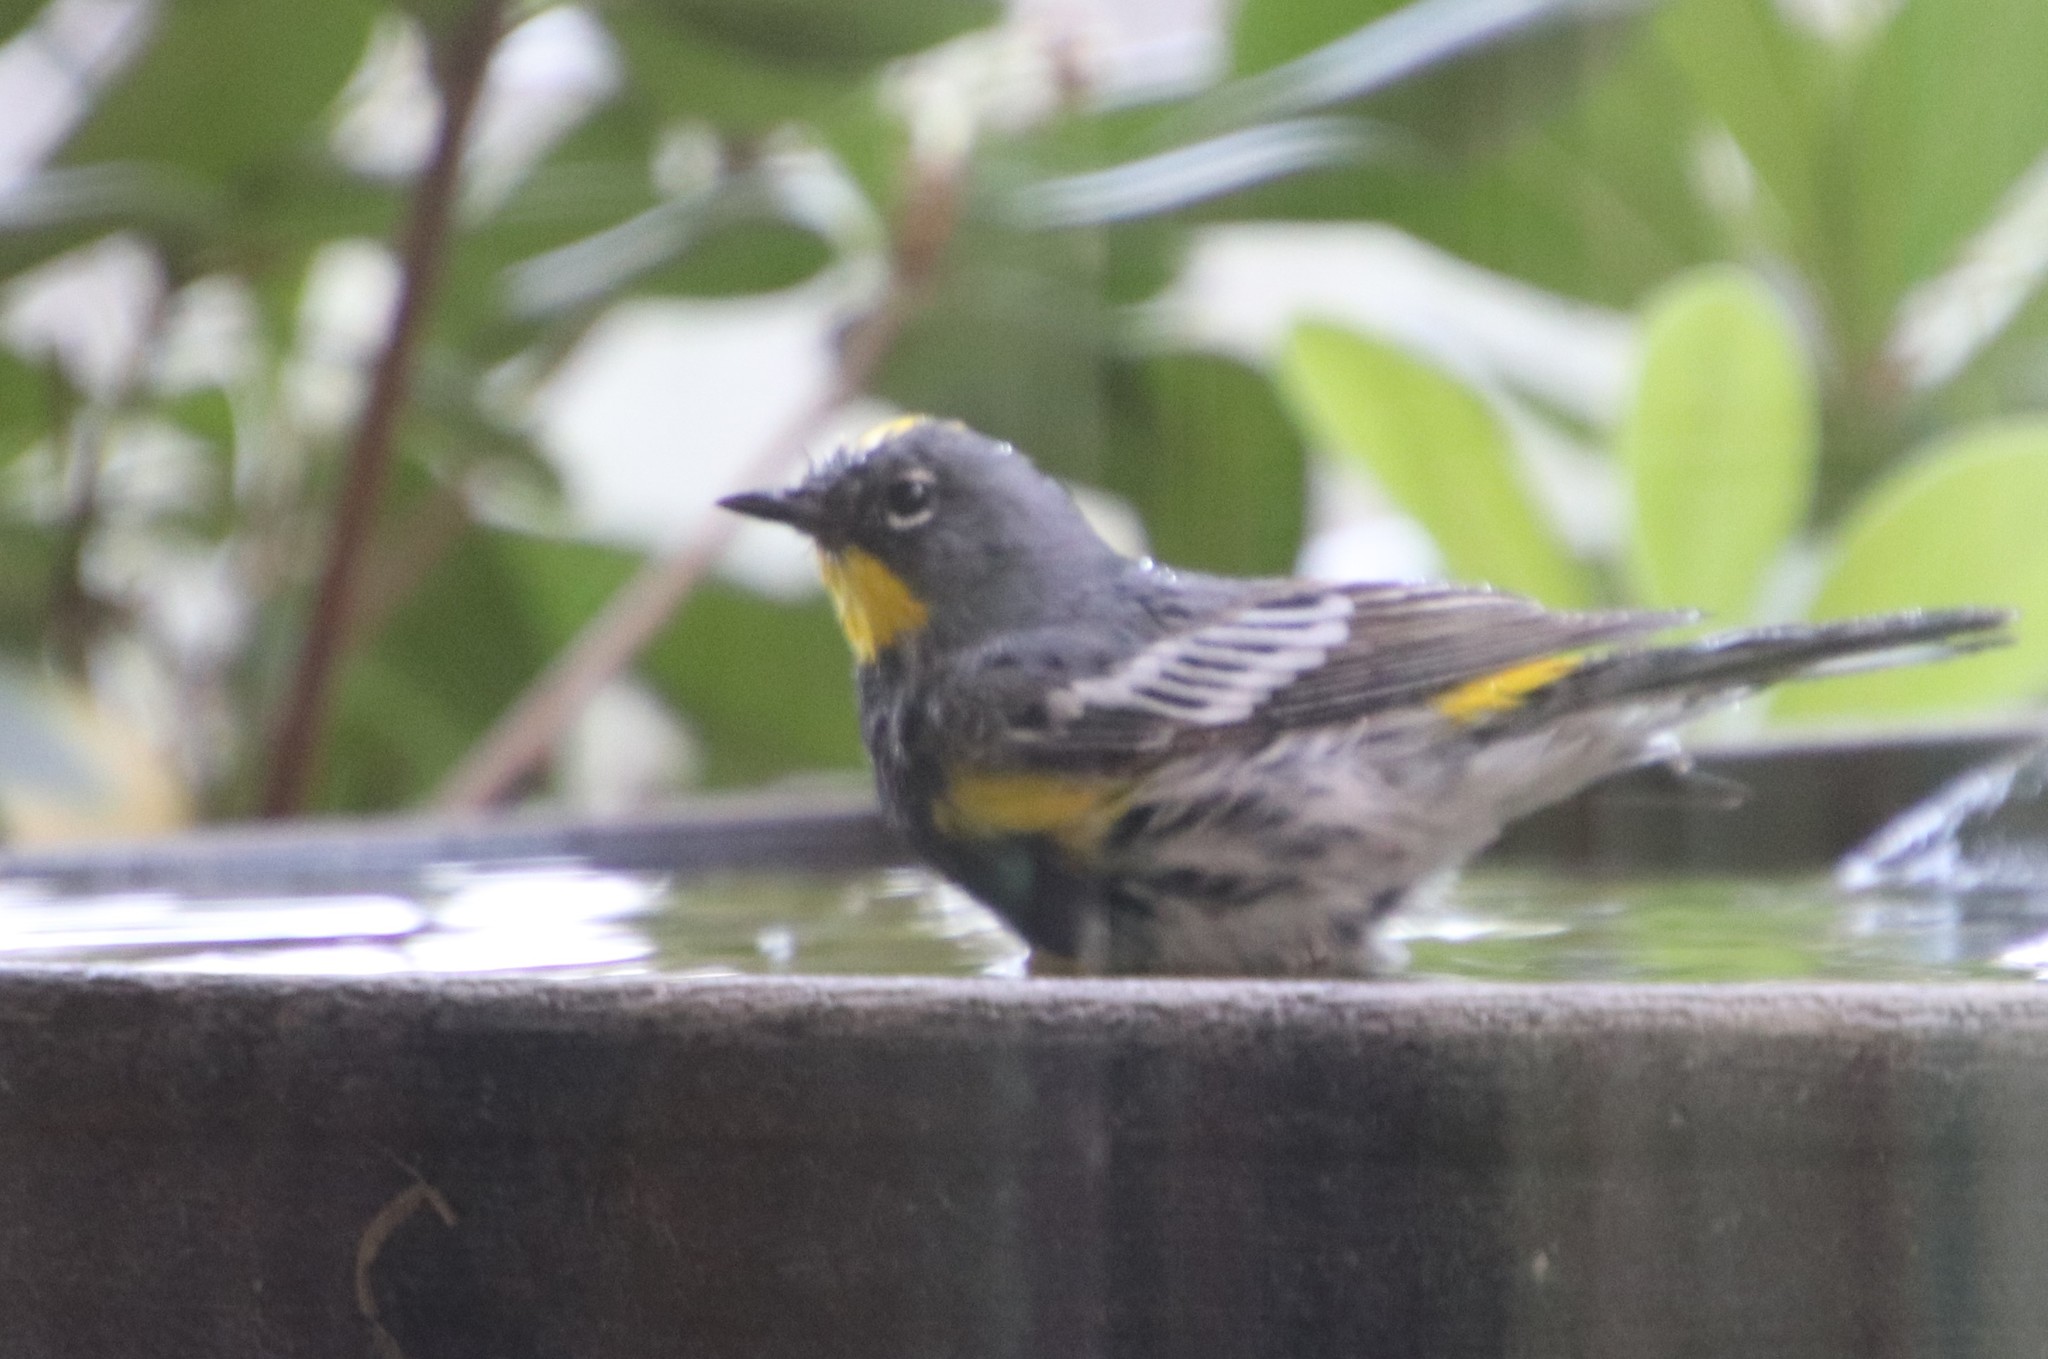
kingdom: Animalia
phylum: Chordata
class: Aves
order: Passeriformes
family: Parulidae
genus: Setophaga
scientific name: Setophaga auduboni
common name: Audubon's warbler
